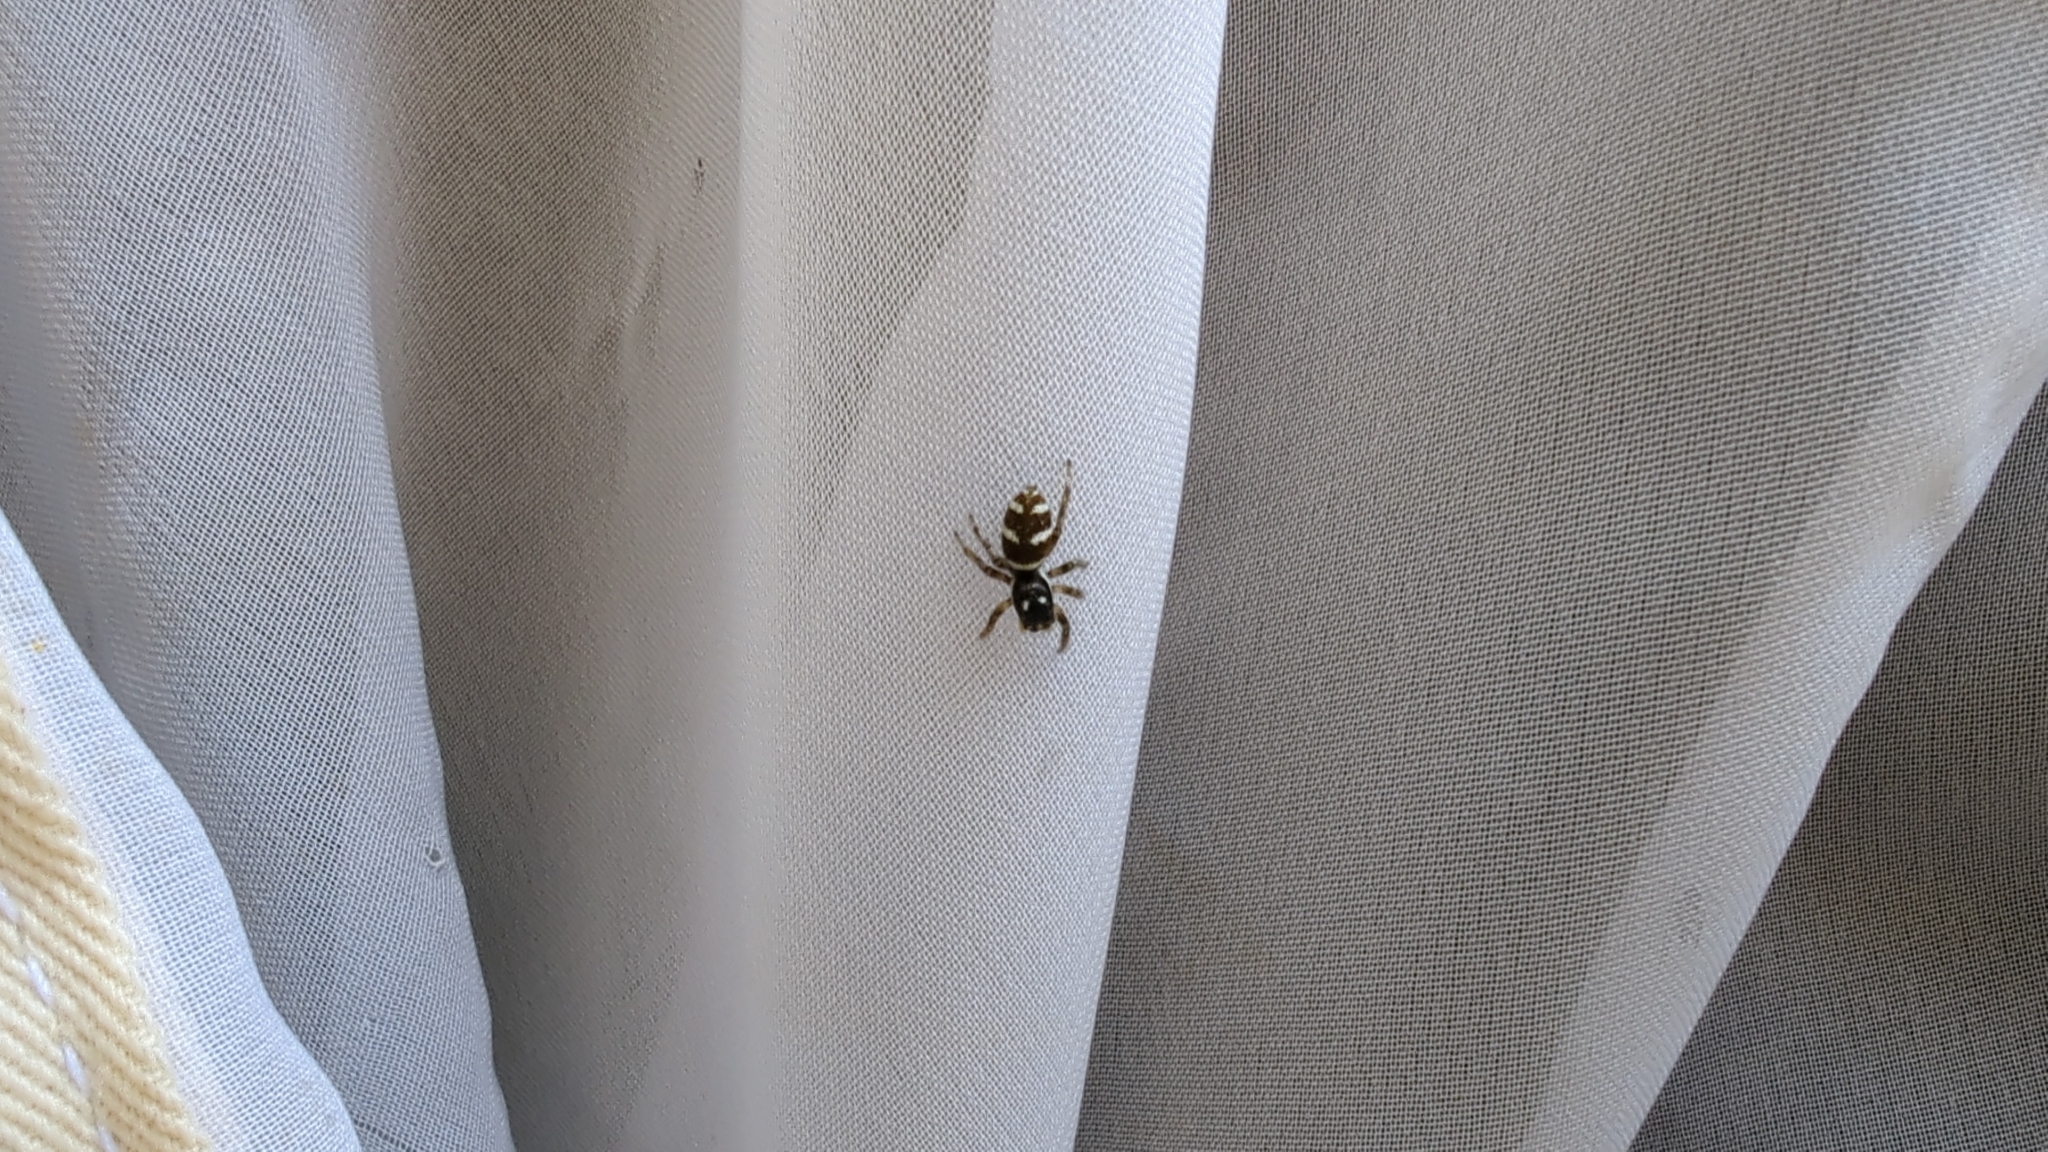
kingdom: Animalia
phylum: Arthropoda
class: Arachnida
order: Araneae
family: Salticidae
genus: Salticus
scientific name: Salticus scenicus
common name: Zebra jumper
